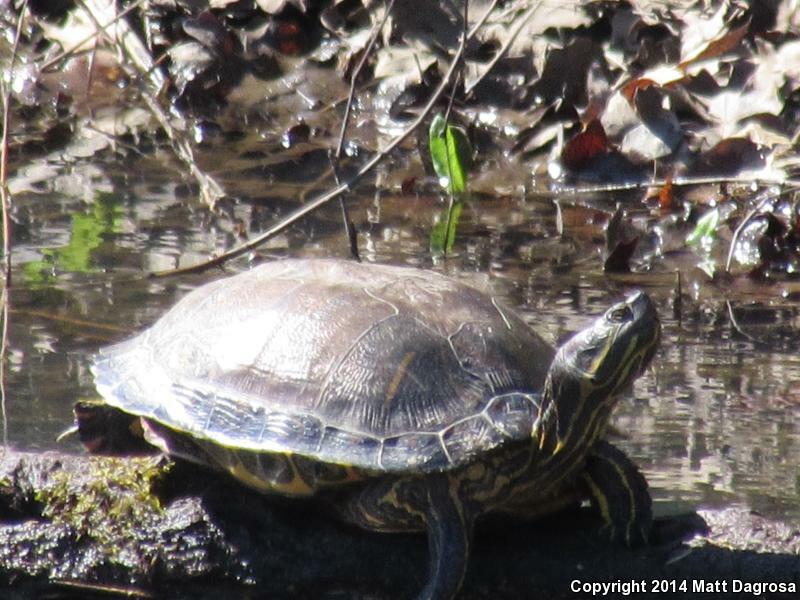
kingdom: Animalia
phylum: Chordata
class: Testudines
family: Emydidae
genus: Trachemys
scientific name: Trachemys scripta
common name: Slider
